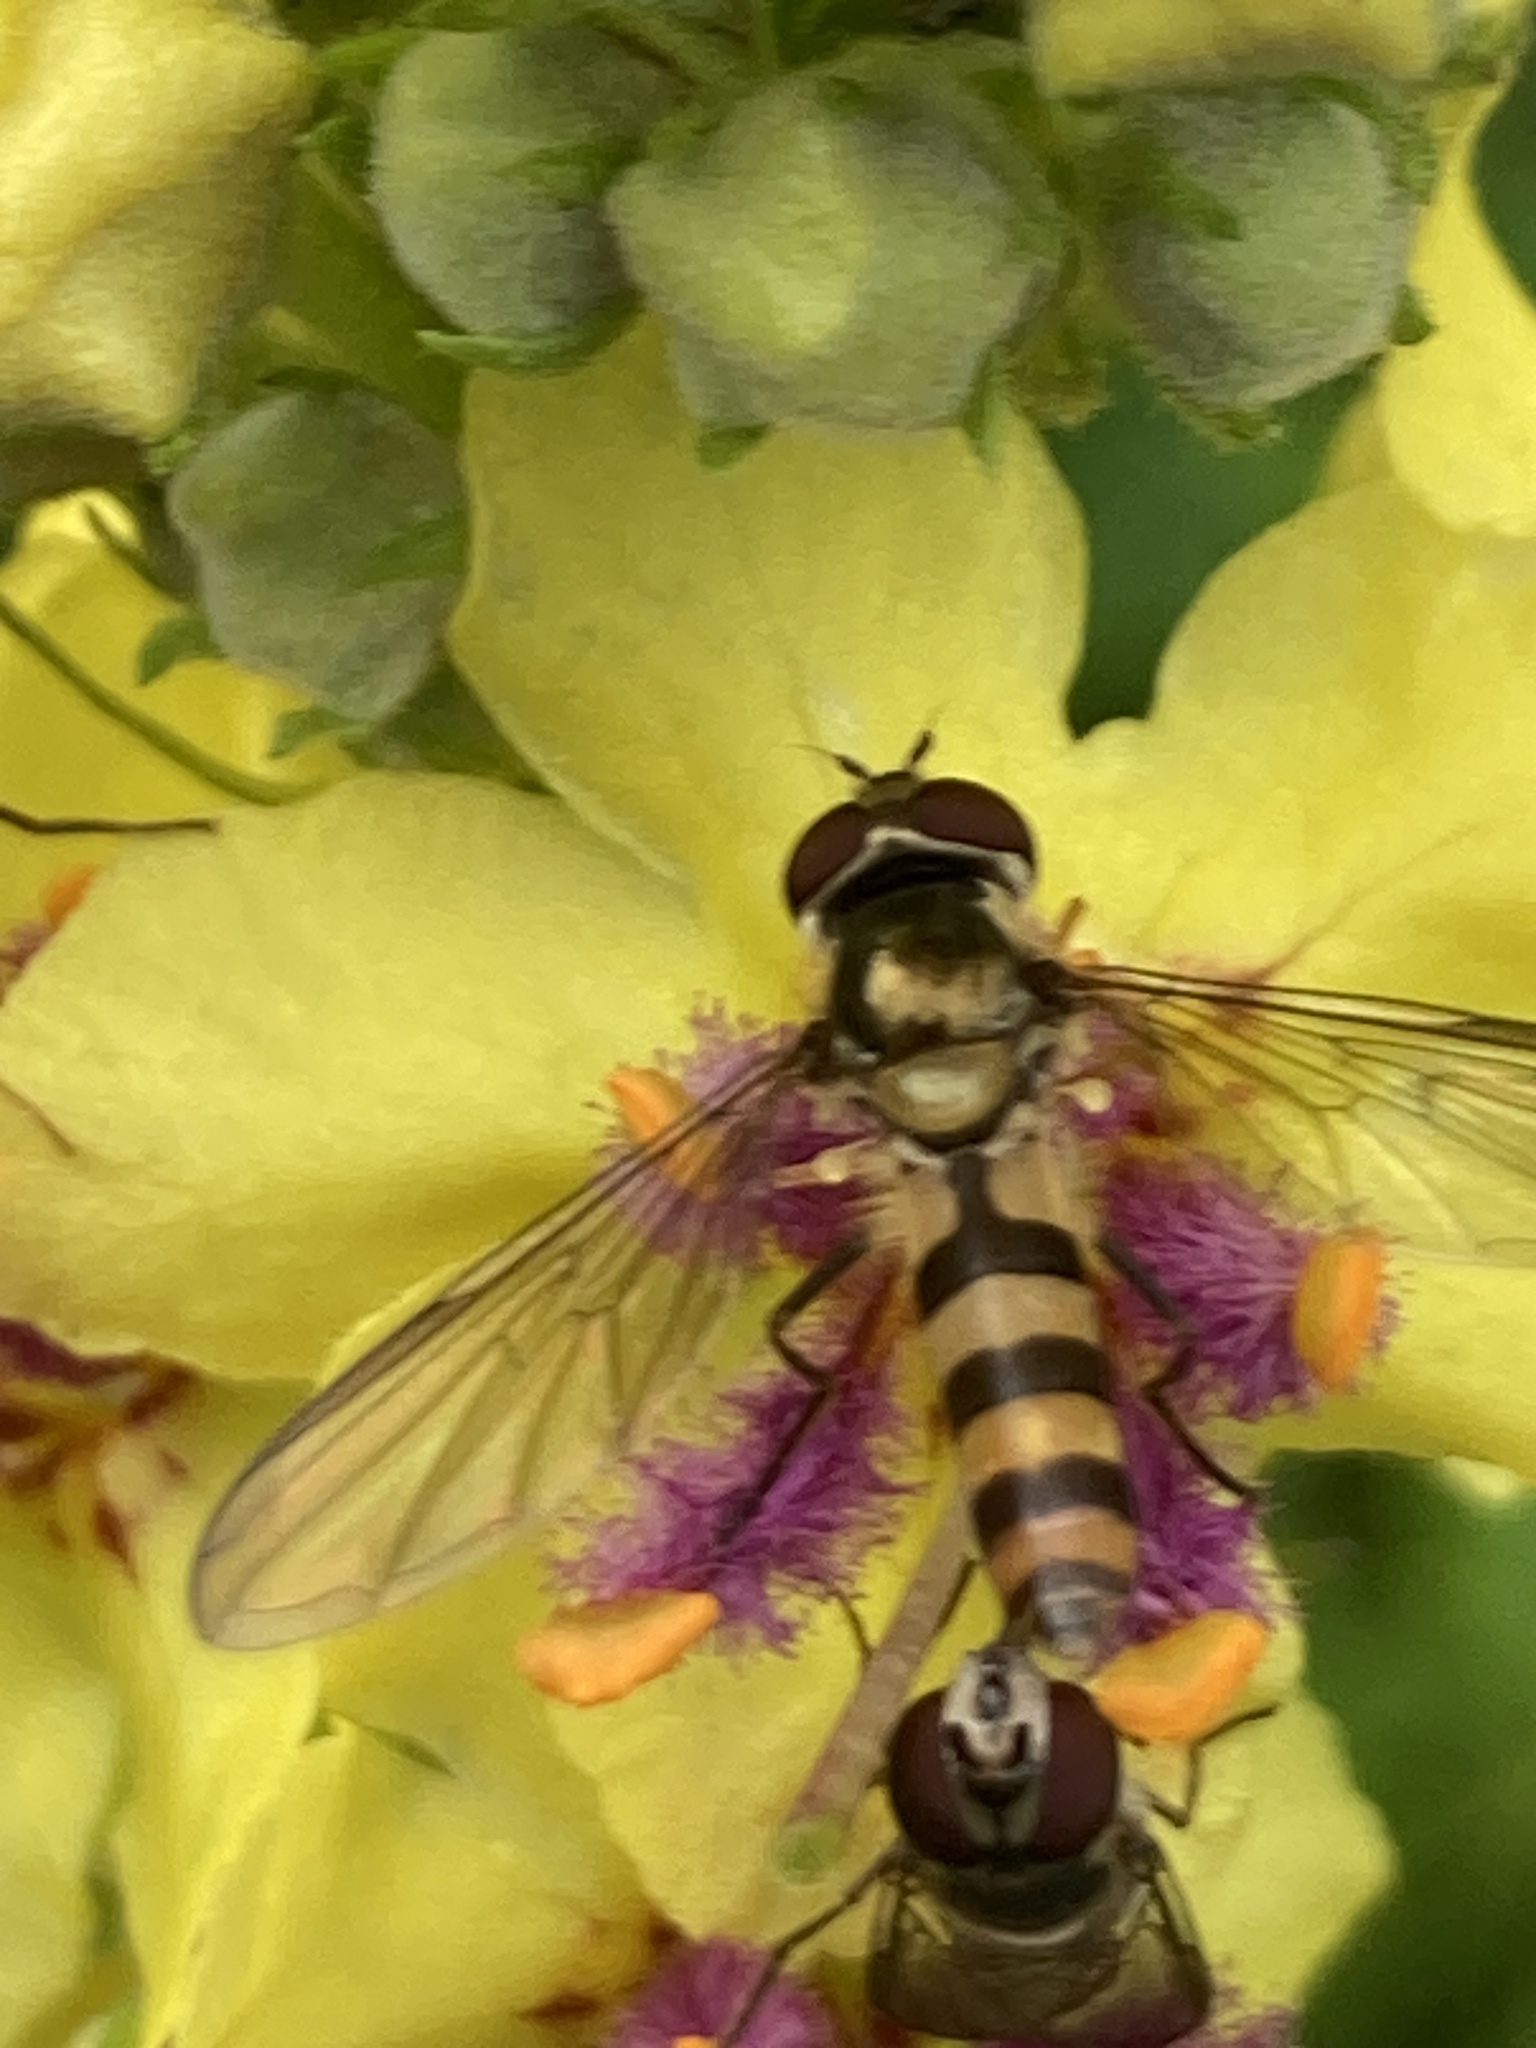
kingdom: Animalia
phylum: Arthropoda
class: Insecta
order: Diptera
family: Syrphidae
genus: Meliscaeva
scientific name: Meliscaeva cinctella
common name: American thintail fly
